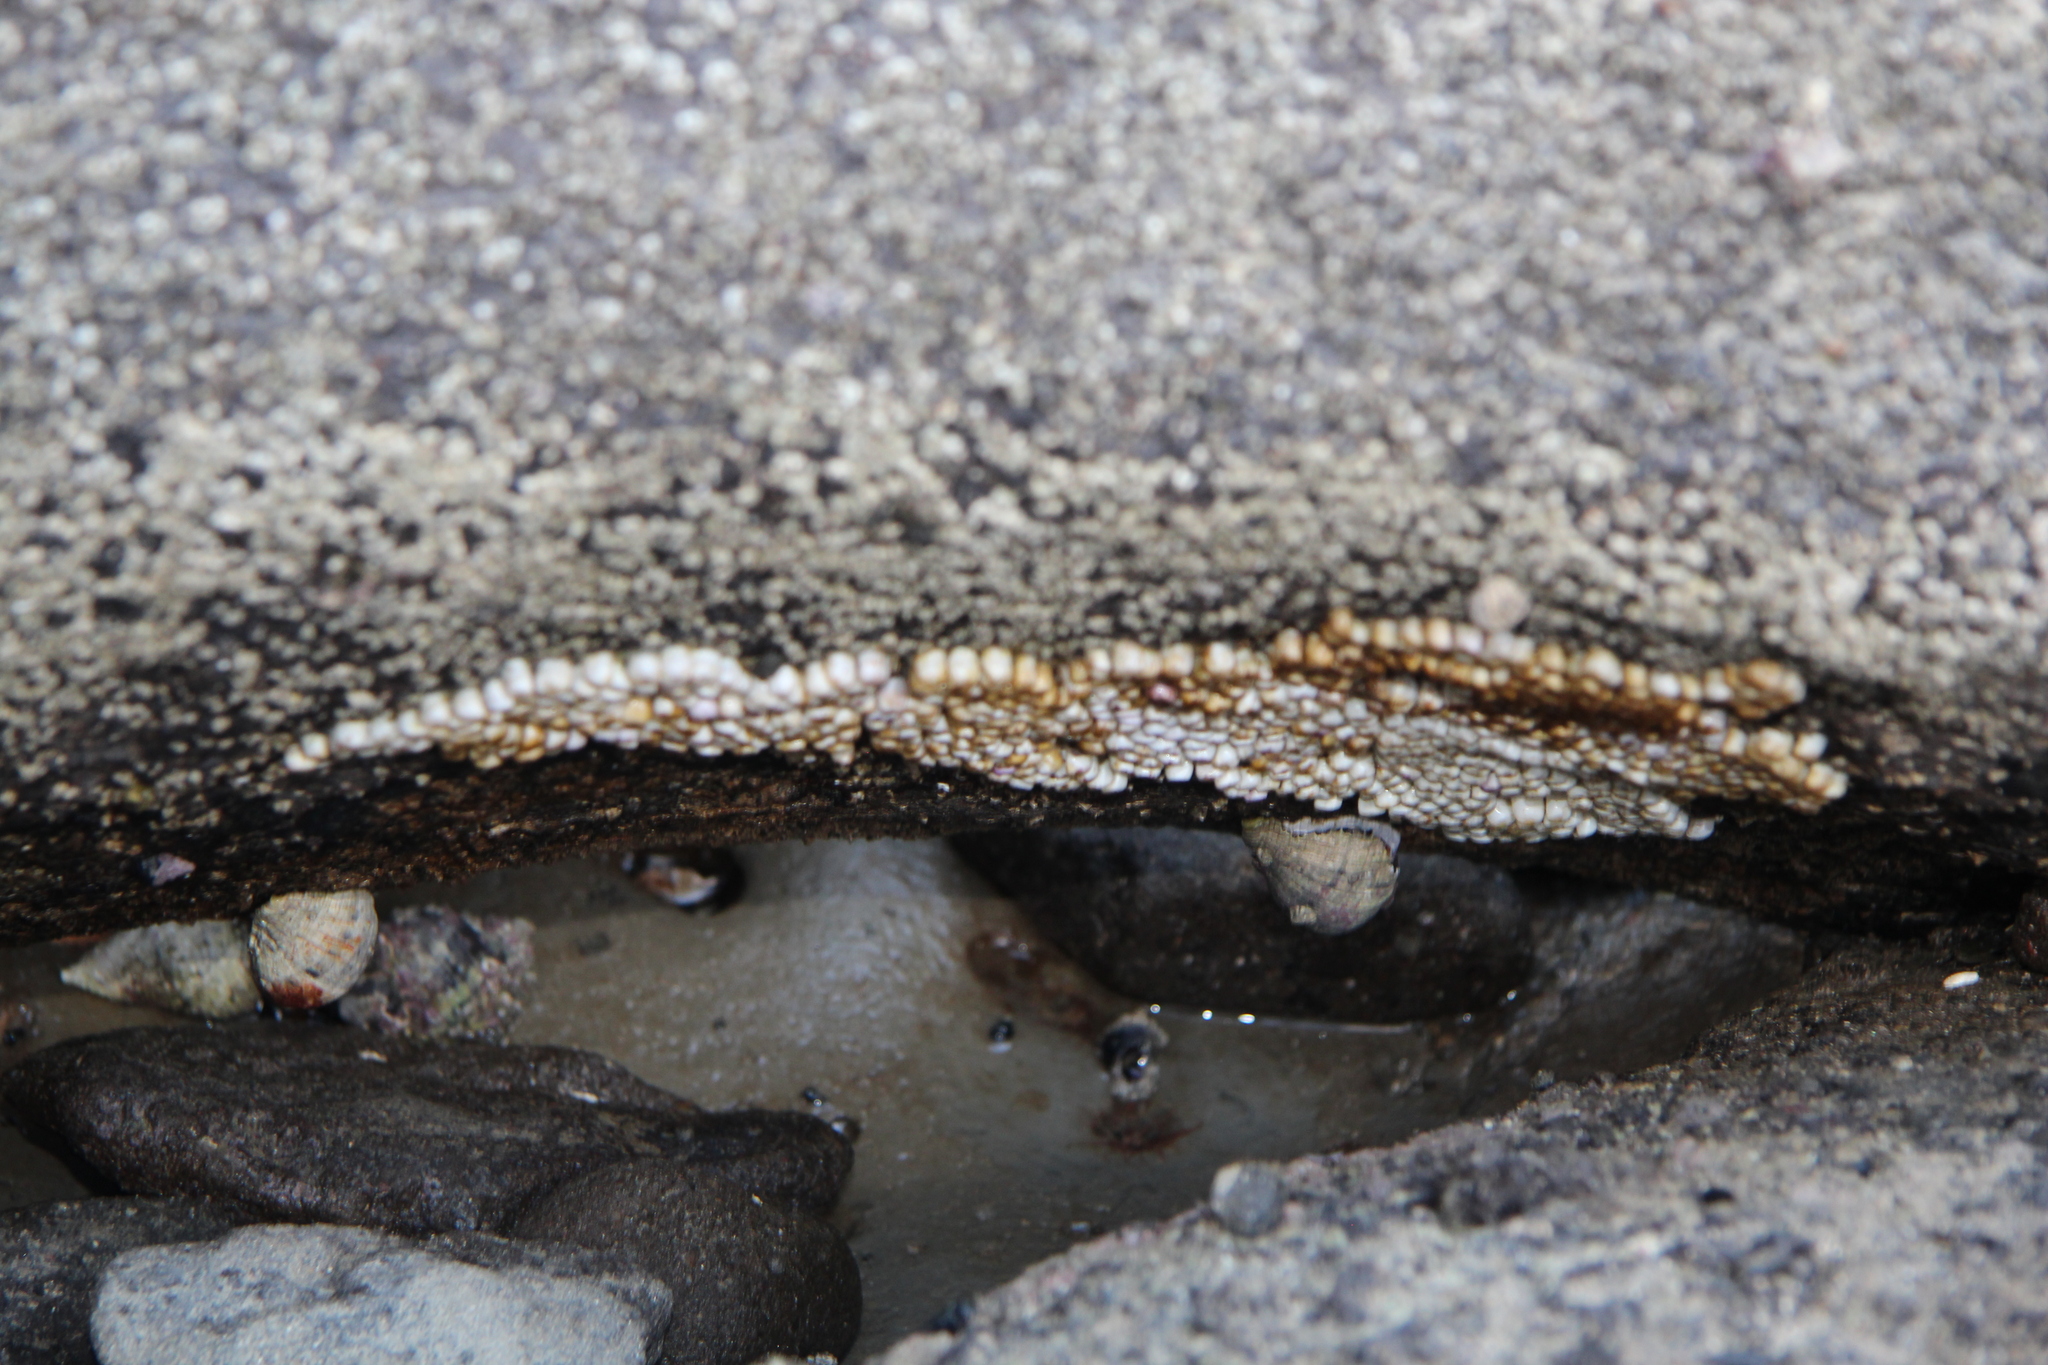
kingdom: Animalia
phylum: Mollusca
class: Gastropoda
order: Neogastropoda
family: Muricidae
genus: Haustrum
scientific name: Haustrum haustorium
